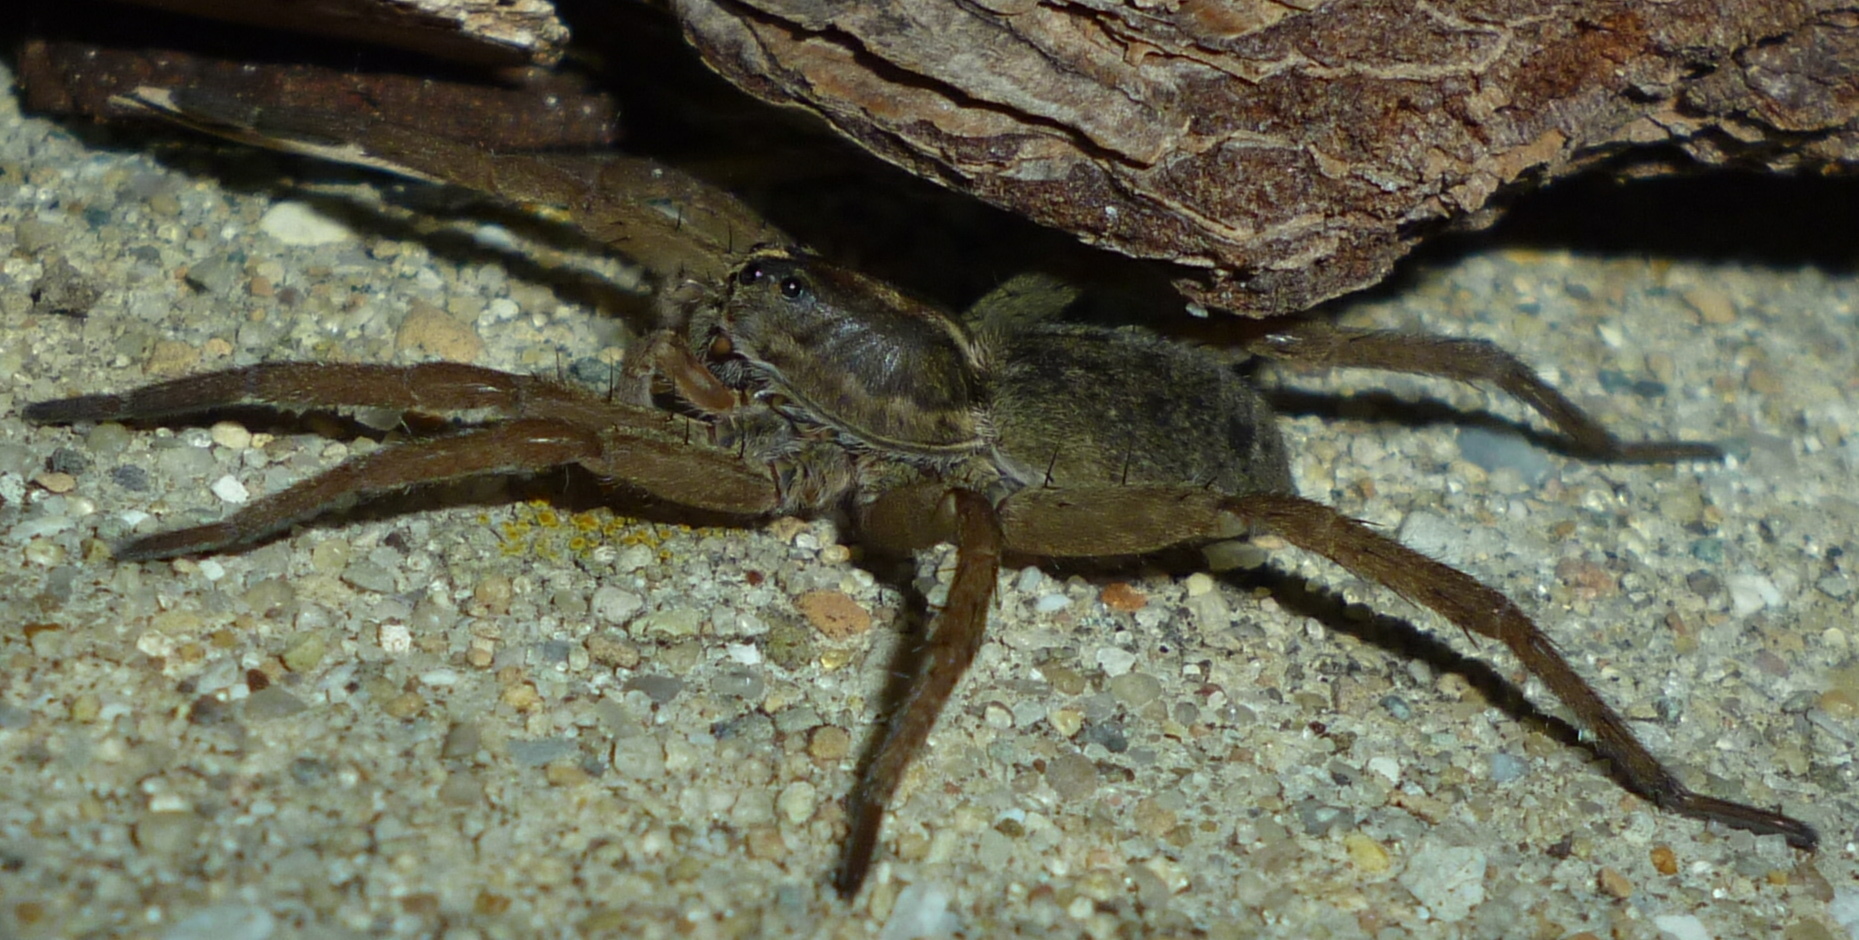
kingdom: Animalia
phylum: Arthropoda
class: Arachnida
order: Araneae
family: Lycosidae
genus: Tigrosa
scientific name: Tigrosa helluo
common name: Wetland giant wolf spider
